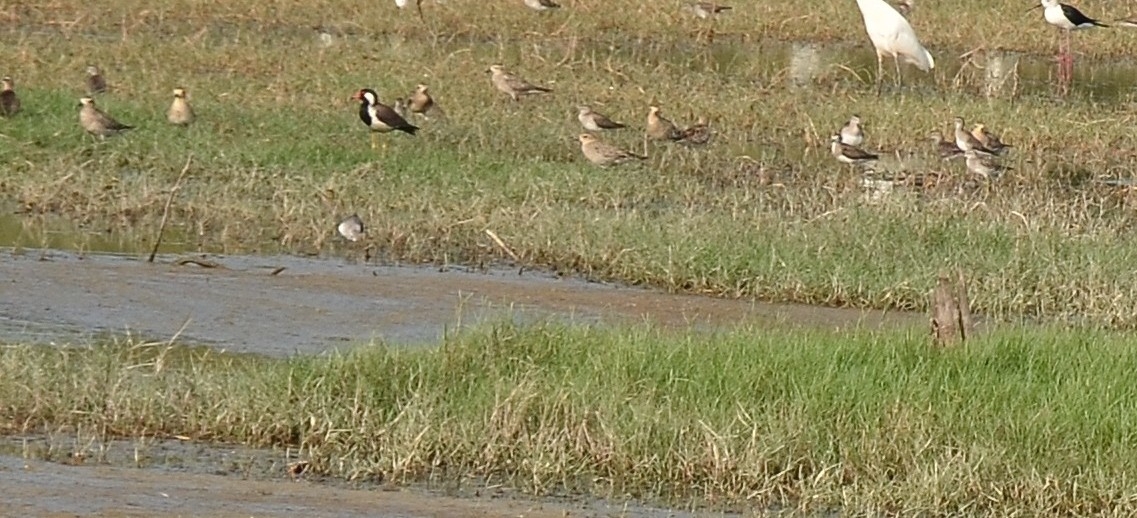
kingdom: Animalia
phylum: Chordata
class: Aves
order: Charadriiformes
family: Charadriidae
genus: Pluvialis
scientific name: Pluvialis fulva
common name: Pacific golden plover
